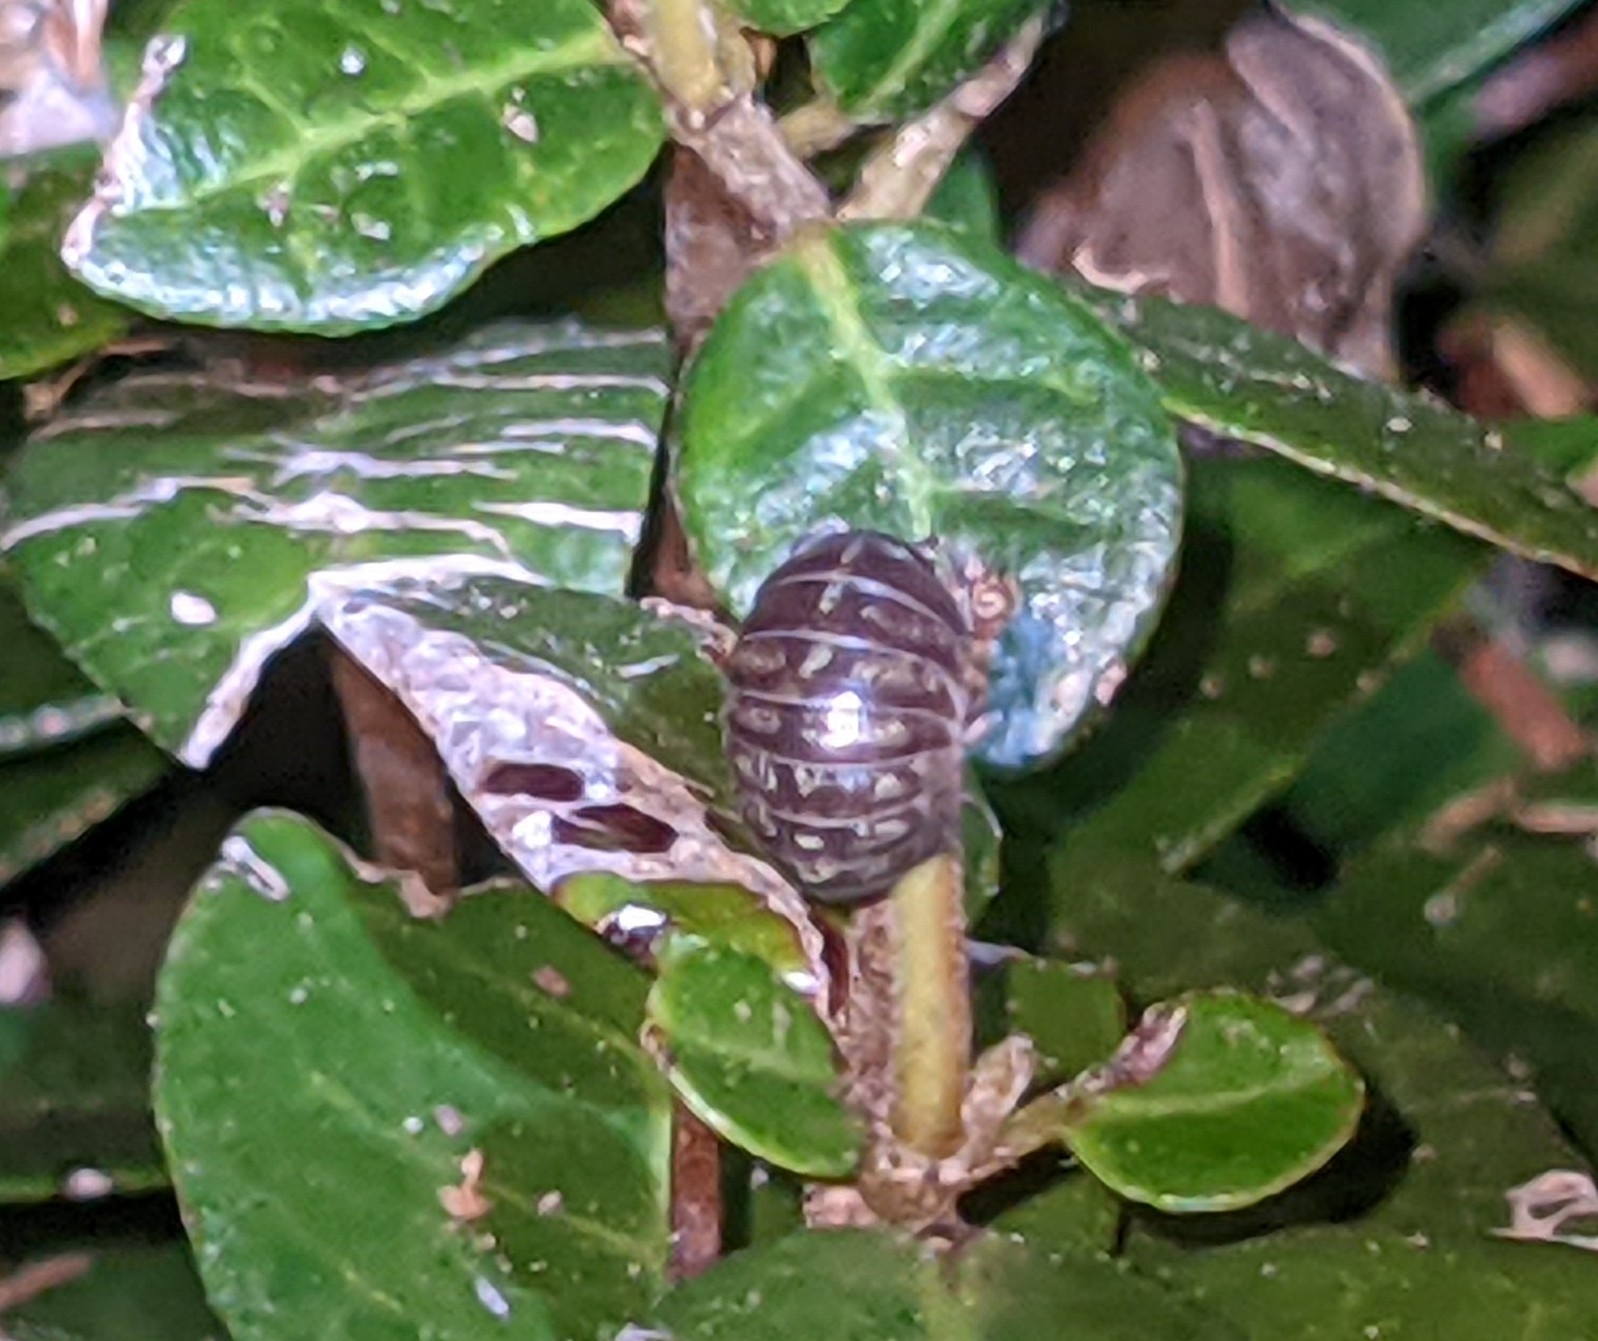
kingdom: Animalia
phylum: Arthropoda
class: Malacostraca
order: Isopoda
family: Armadillidiidae
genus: Armadillidium
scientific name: Armadillidium vulgare
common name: Common pill woodlouse
